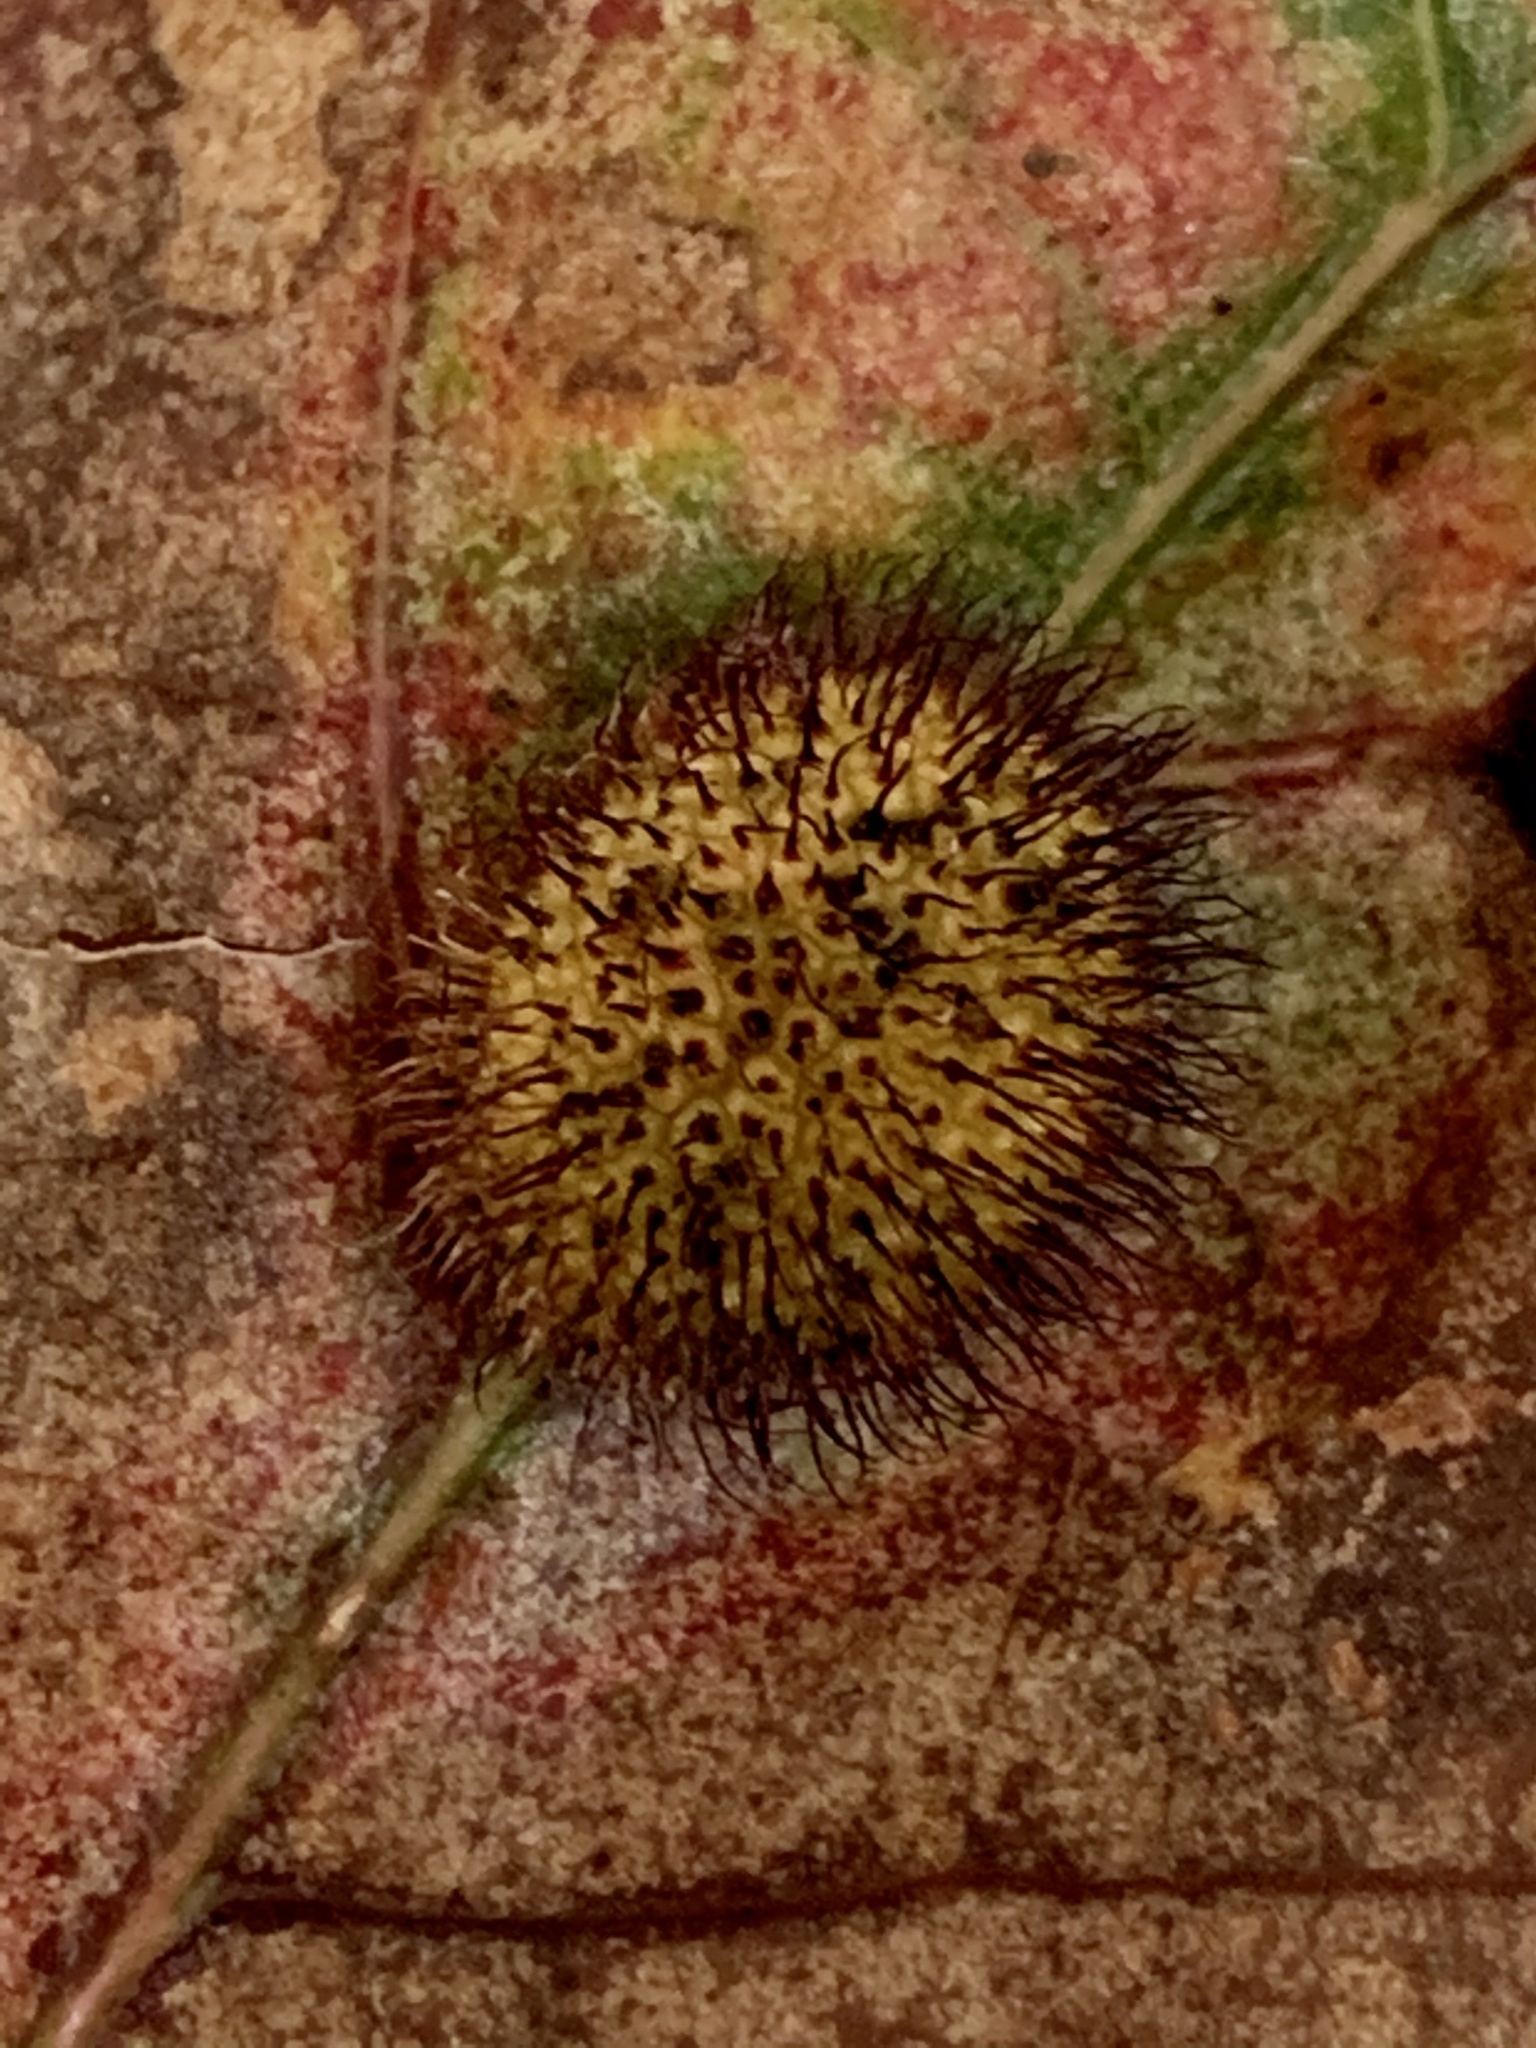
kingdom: Animalia
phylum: Arthropoda
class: Insecta
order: Hymenoptera
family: Cynipidae
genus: Acraspis
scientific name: Acraspis erinacei
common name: Hedgehog gall wasp
